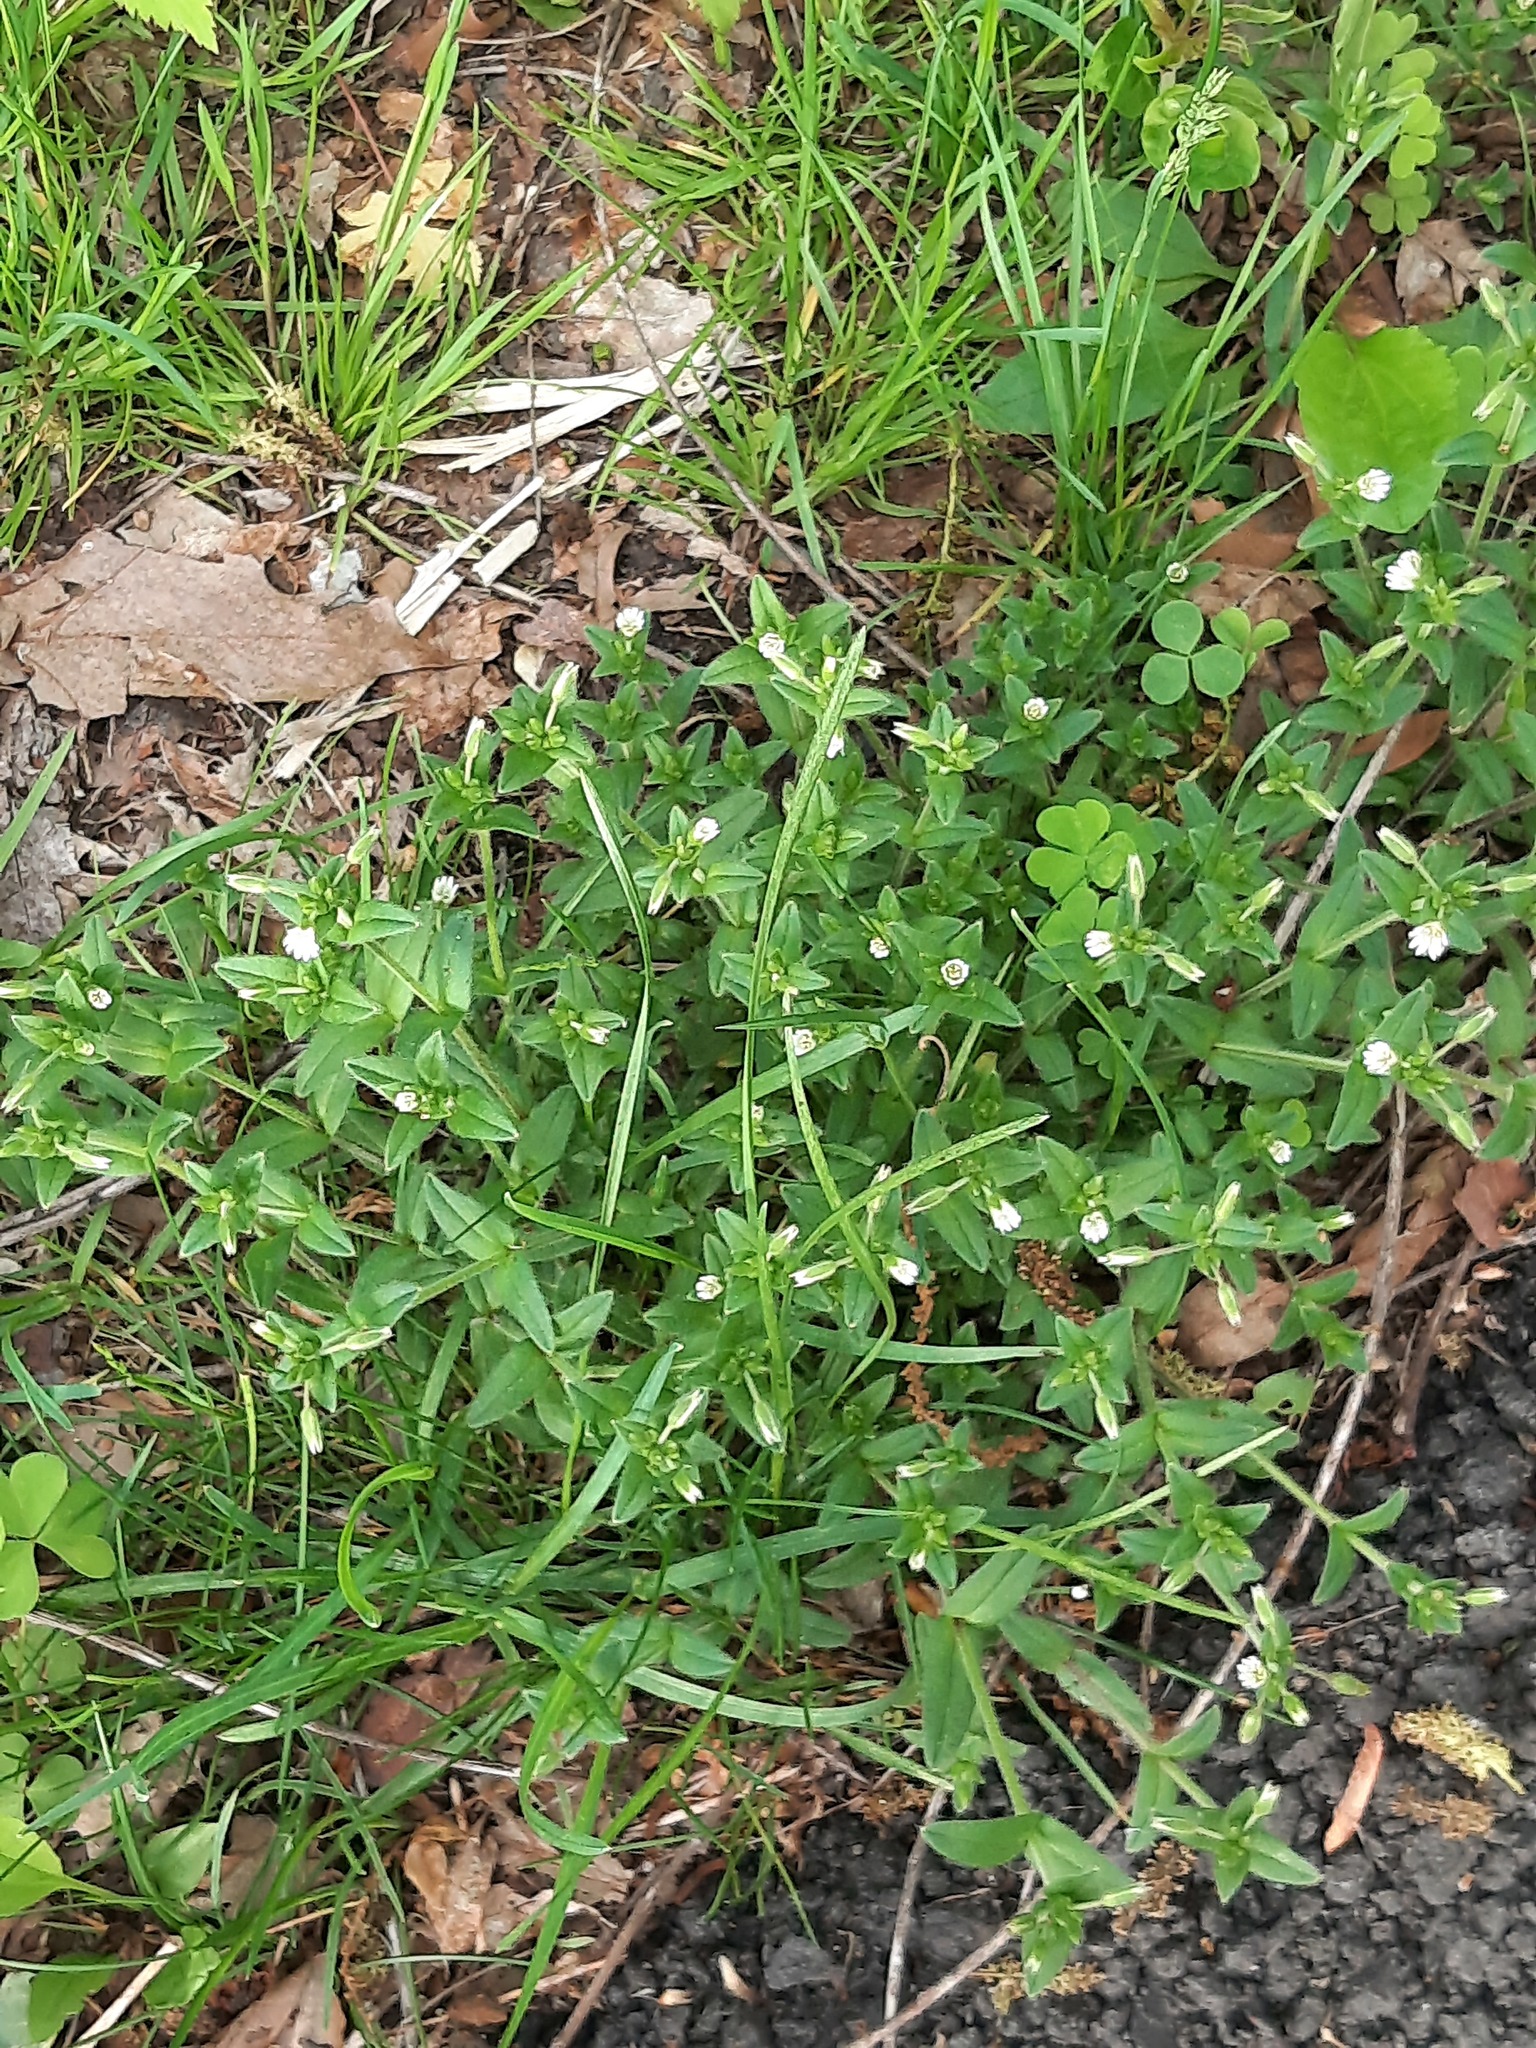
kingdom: Plantae
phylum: Tracheophyta
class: Magnoliopsida
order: Caryophyllales
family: Caryophyllaceae
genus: Cerastium
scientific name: Cerastium fontanum
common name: Common mouse-ear
